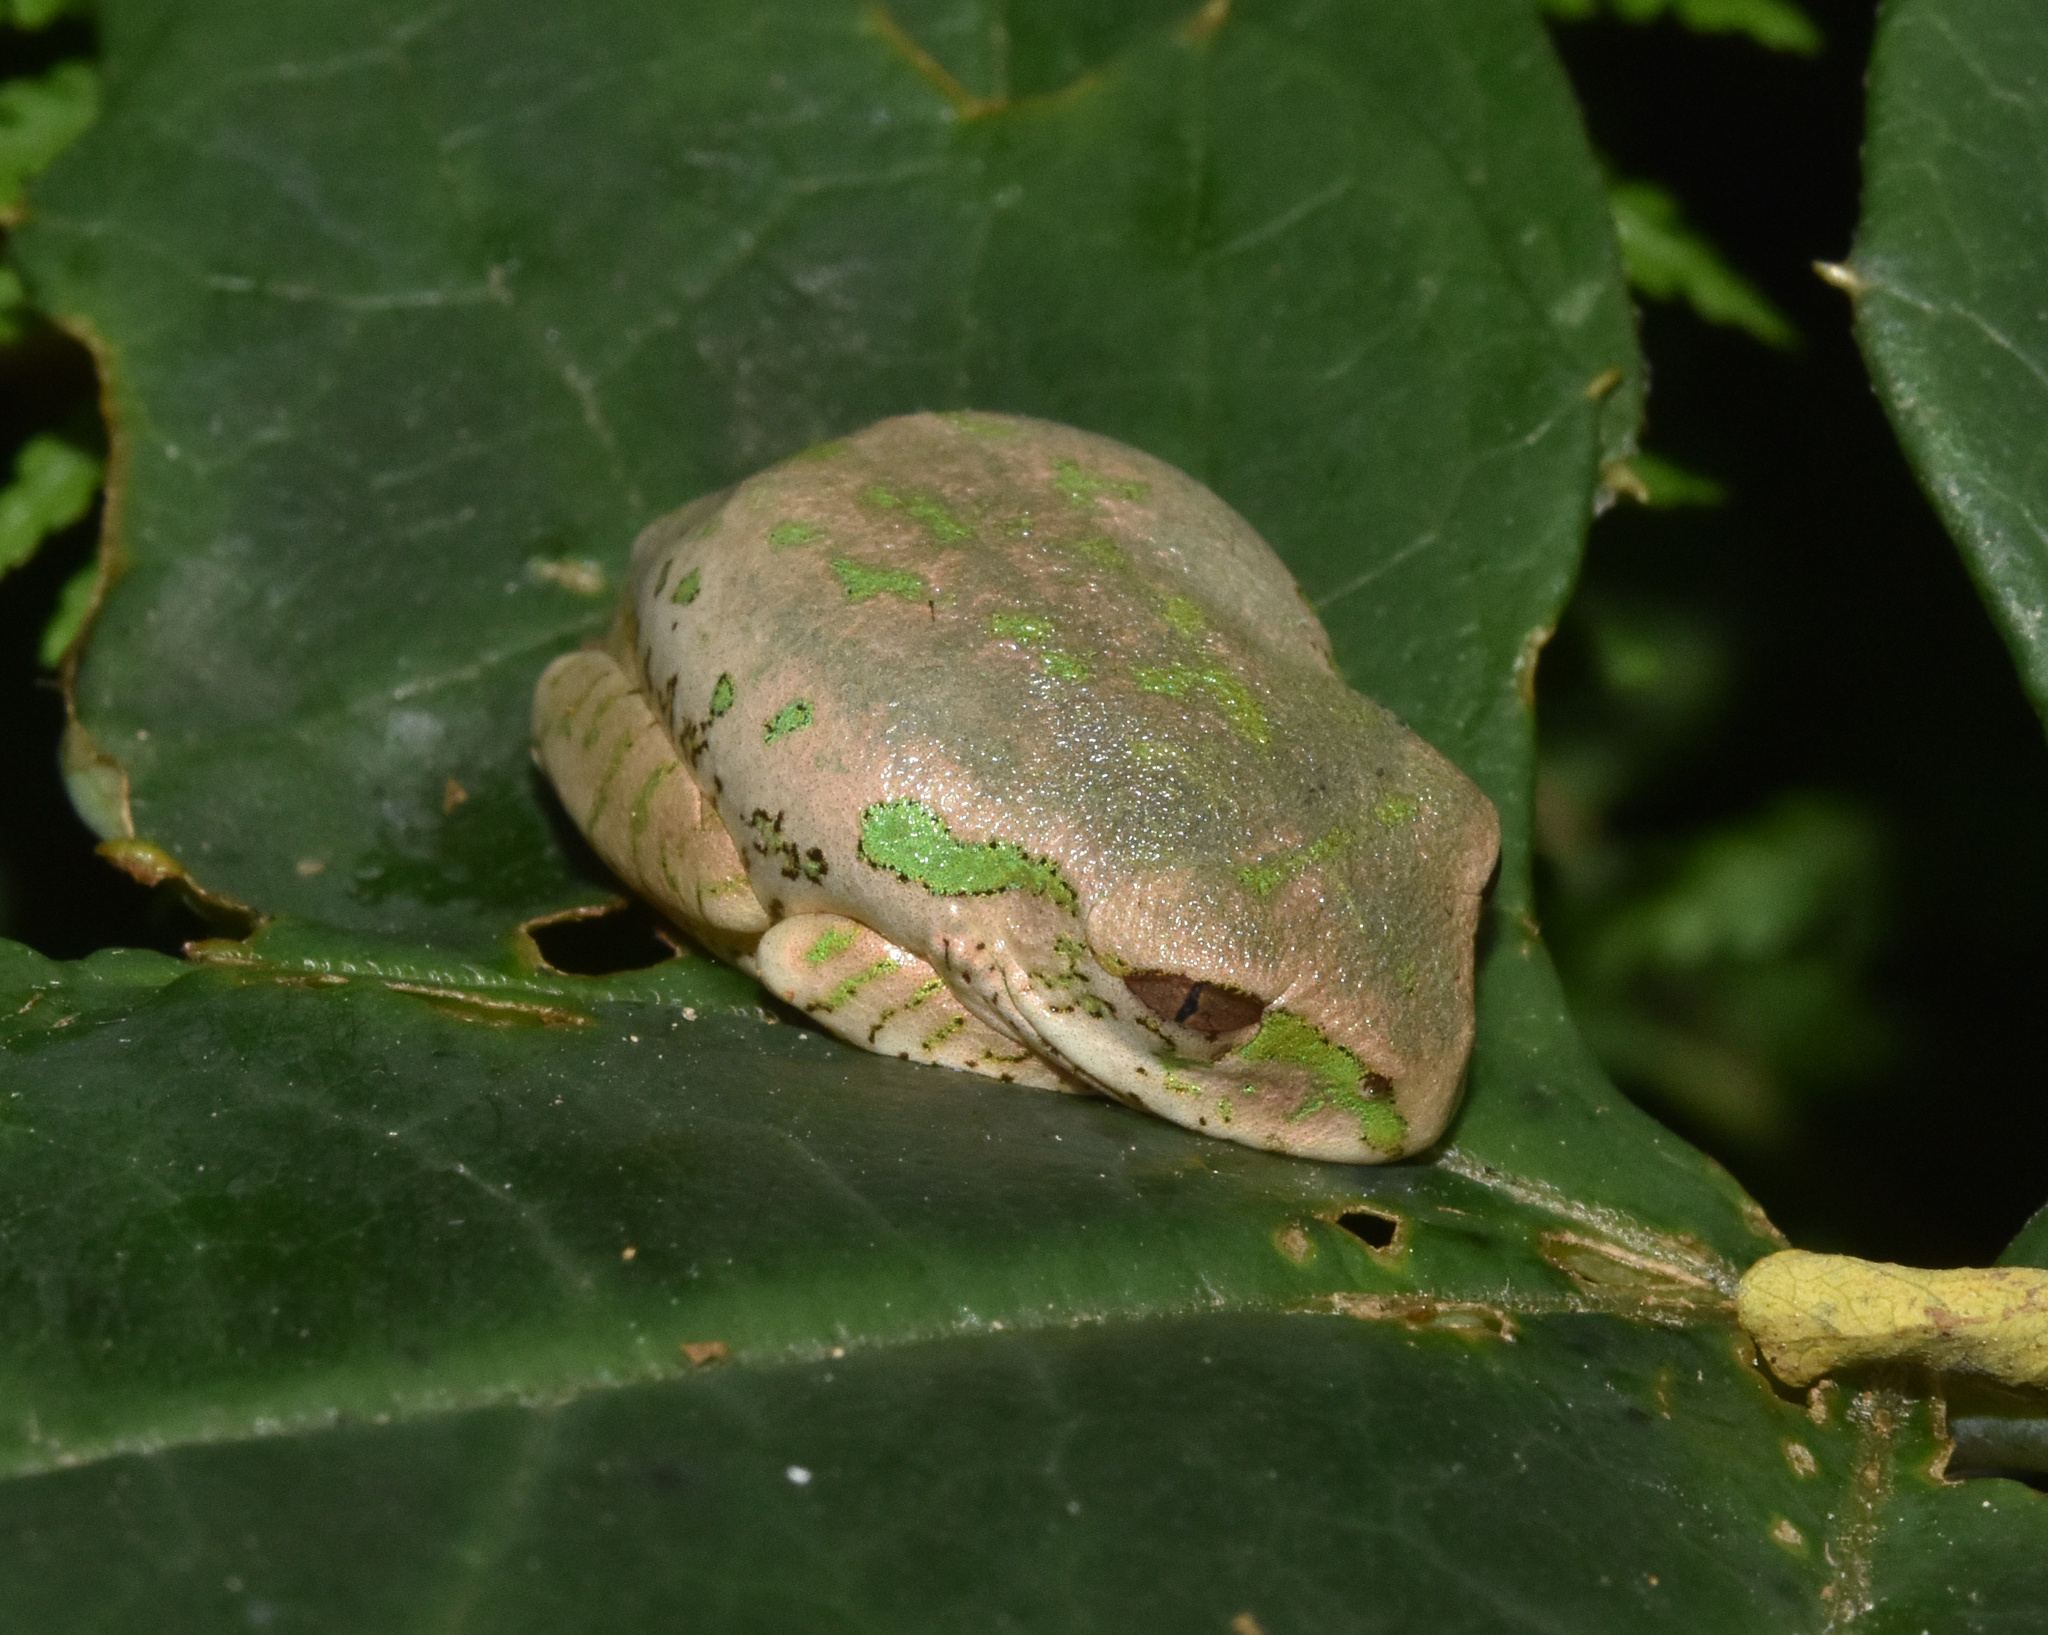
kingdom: Animalia
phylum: Chordata
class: Amphibia
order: Anura
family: Arthroleptidae
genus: Leptopelis
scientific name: Leptopelis natalensis
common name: Natal tree frog
